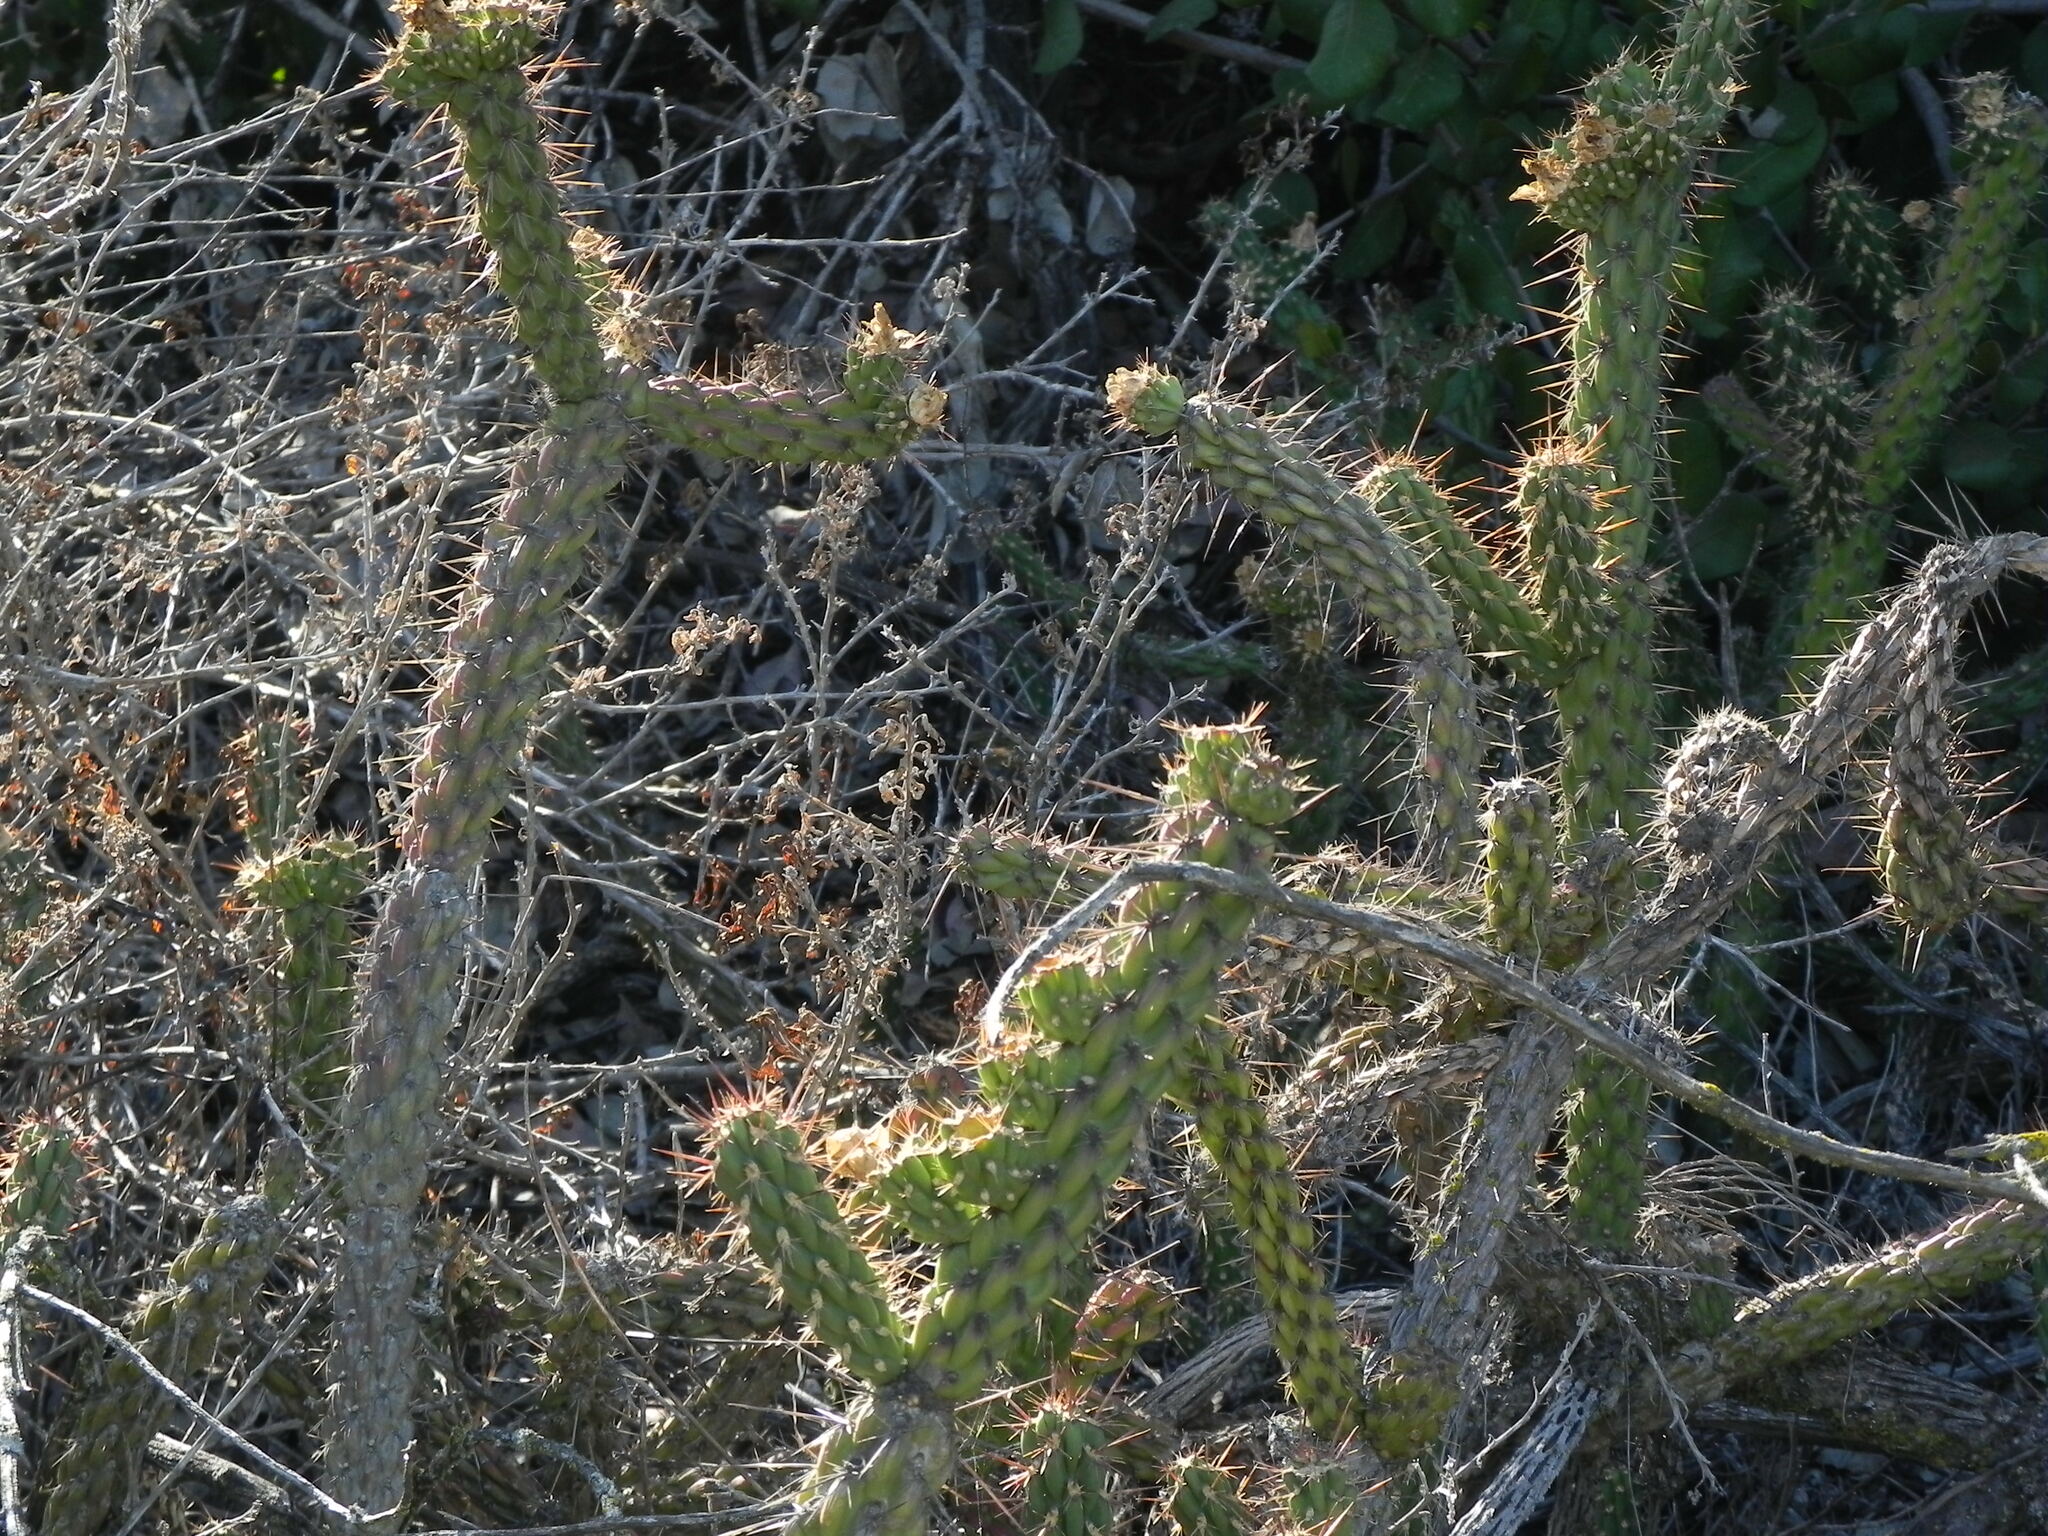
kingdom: Plantae
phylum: Tracheophyta
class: Magnoliopsida
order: Caryophyllales
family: Cactaceae
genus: Cylindropuntia
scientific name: Cylindropuntia californica
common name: Snake cholla
